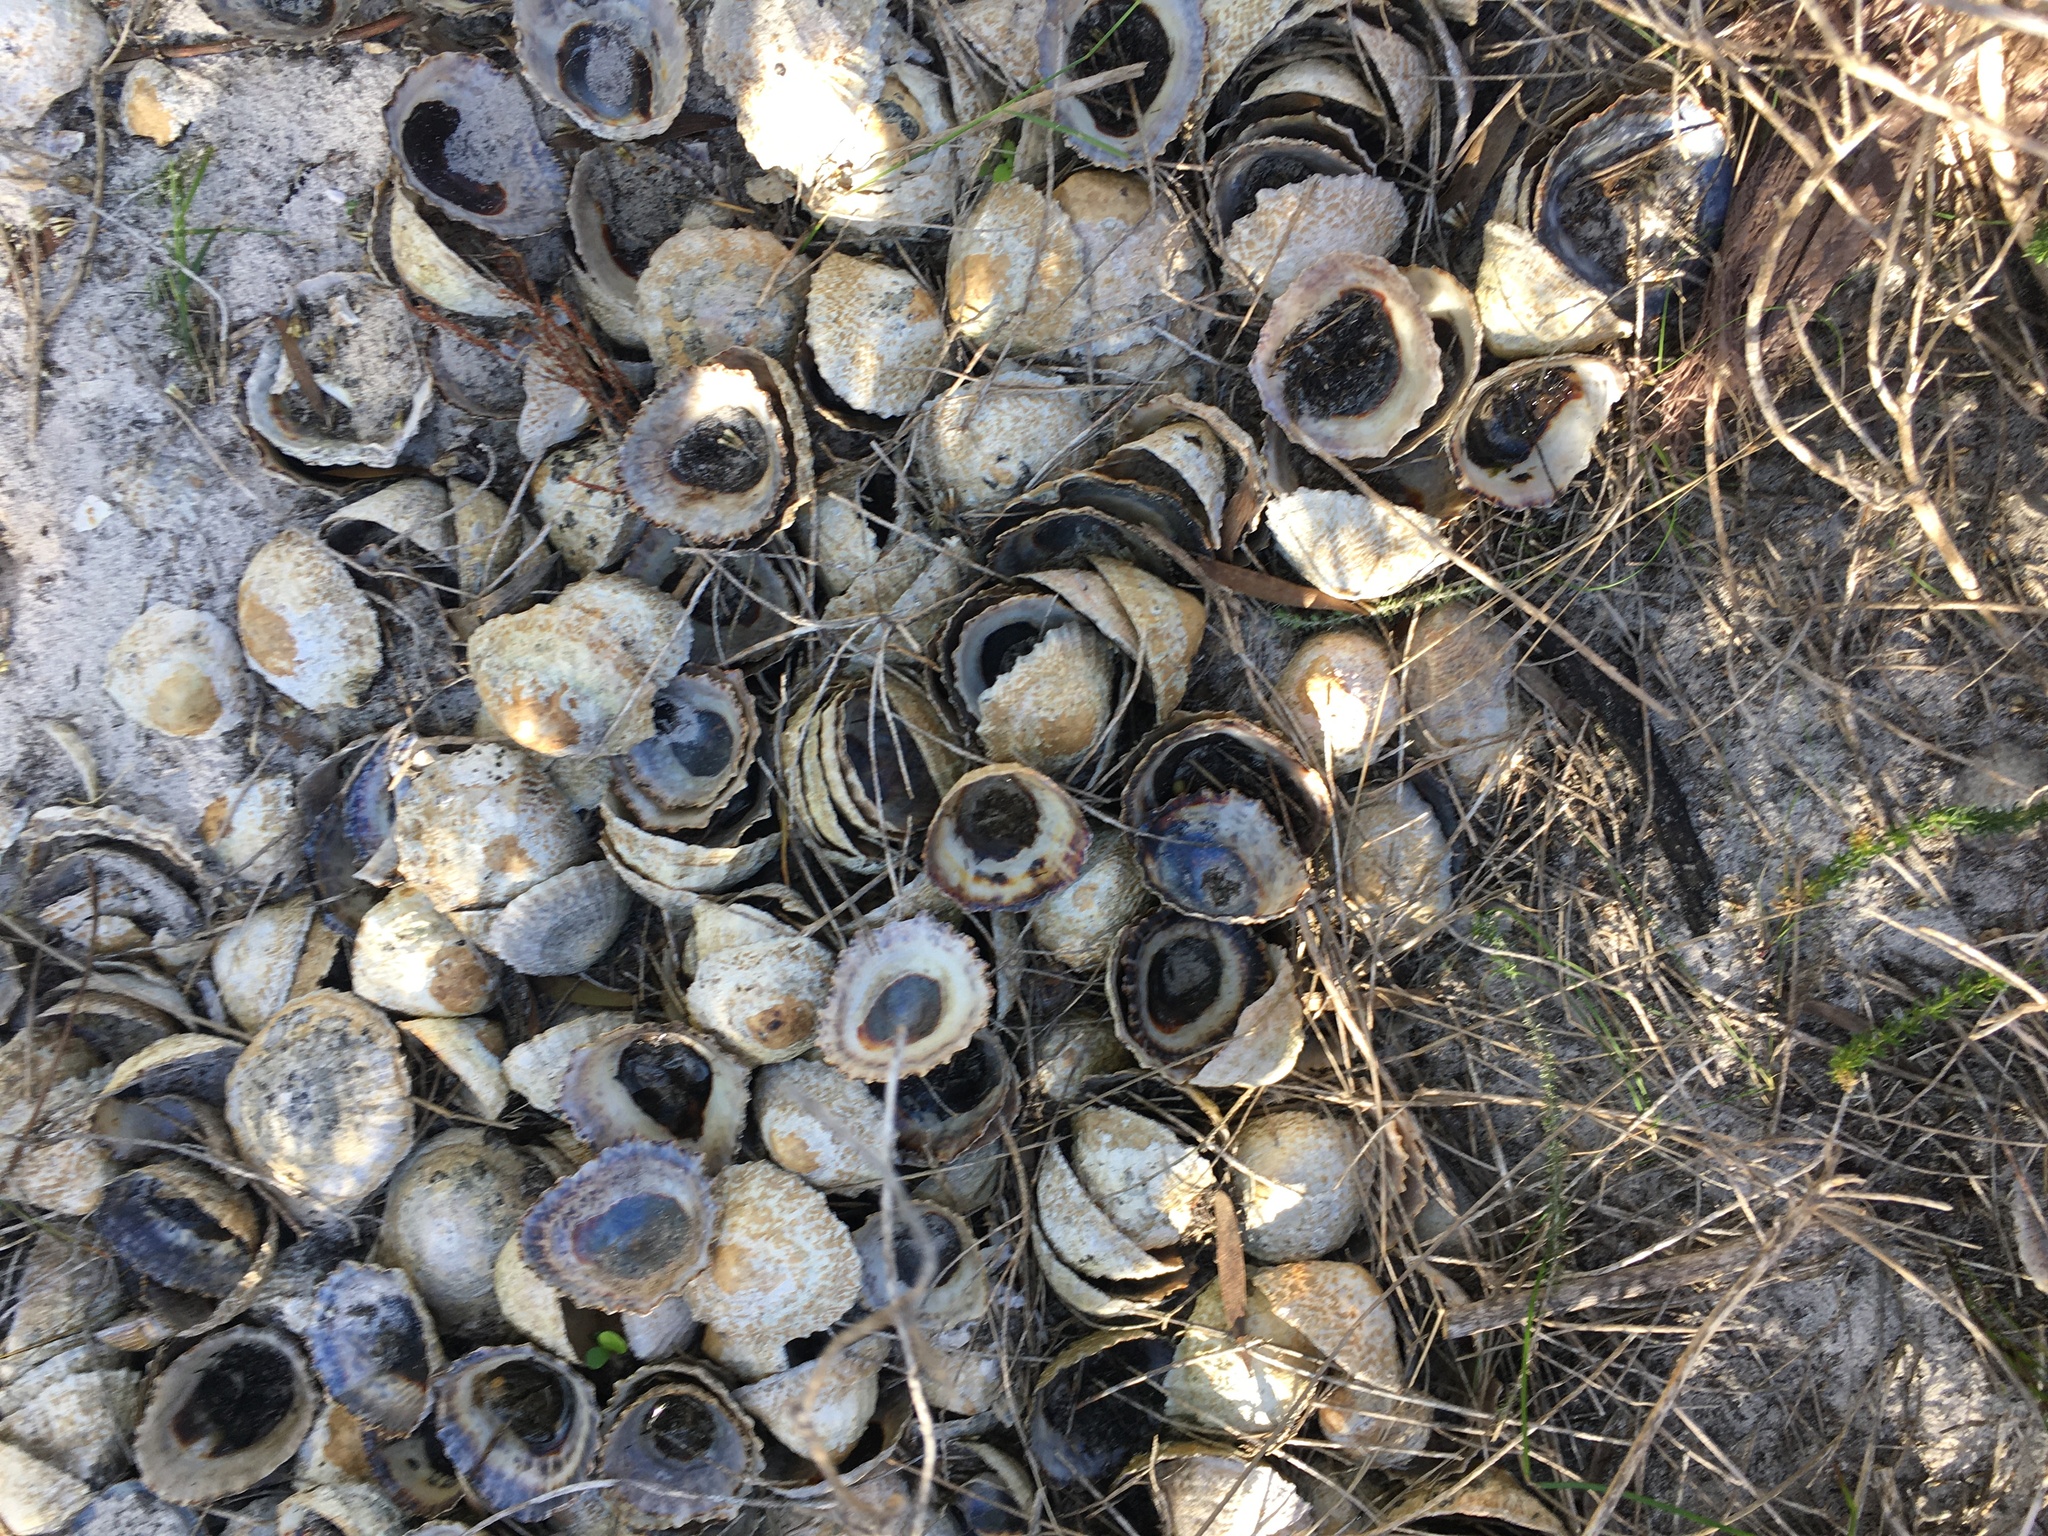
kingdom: Animalia
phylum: Mollusca
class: Gastropoda
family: Patellidae
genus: Cymbula
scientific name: Cymbula granatina
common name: Granite limpet
